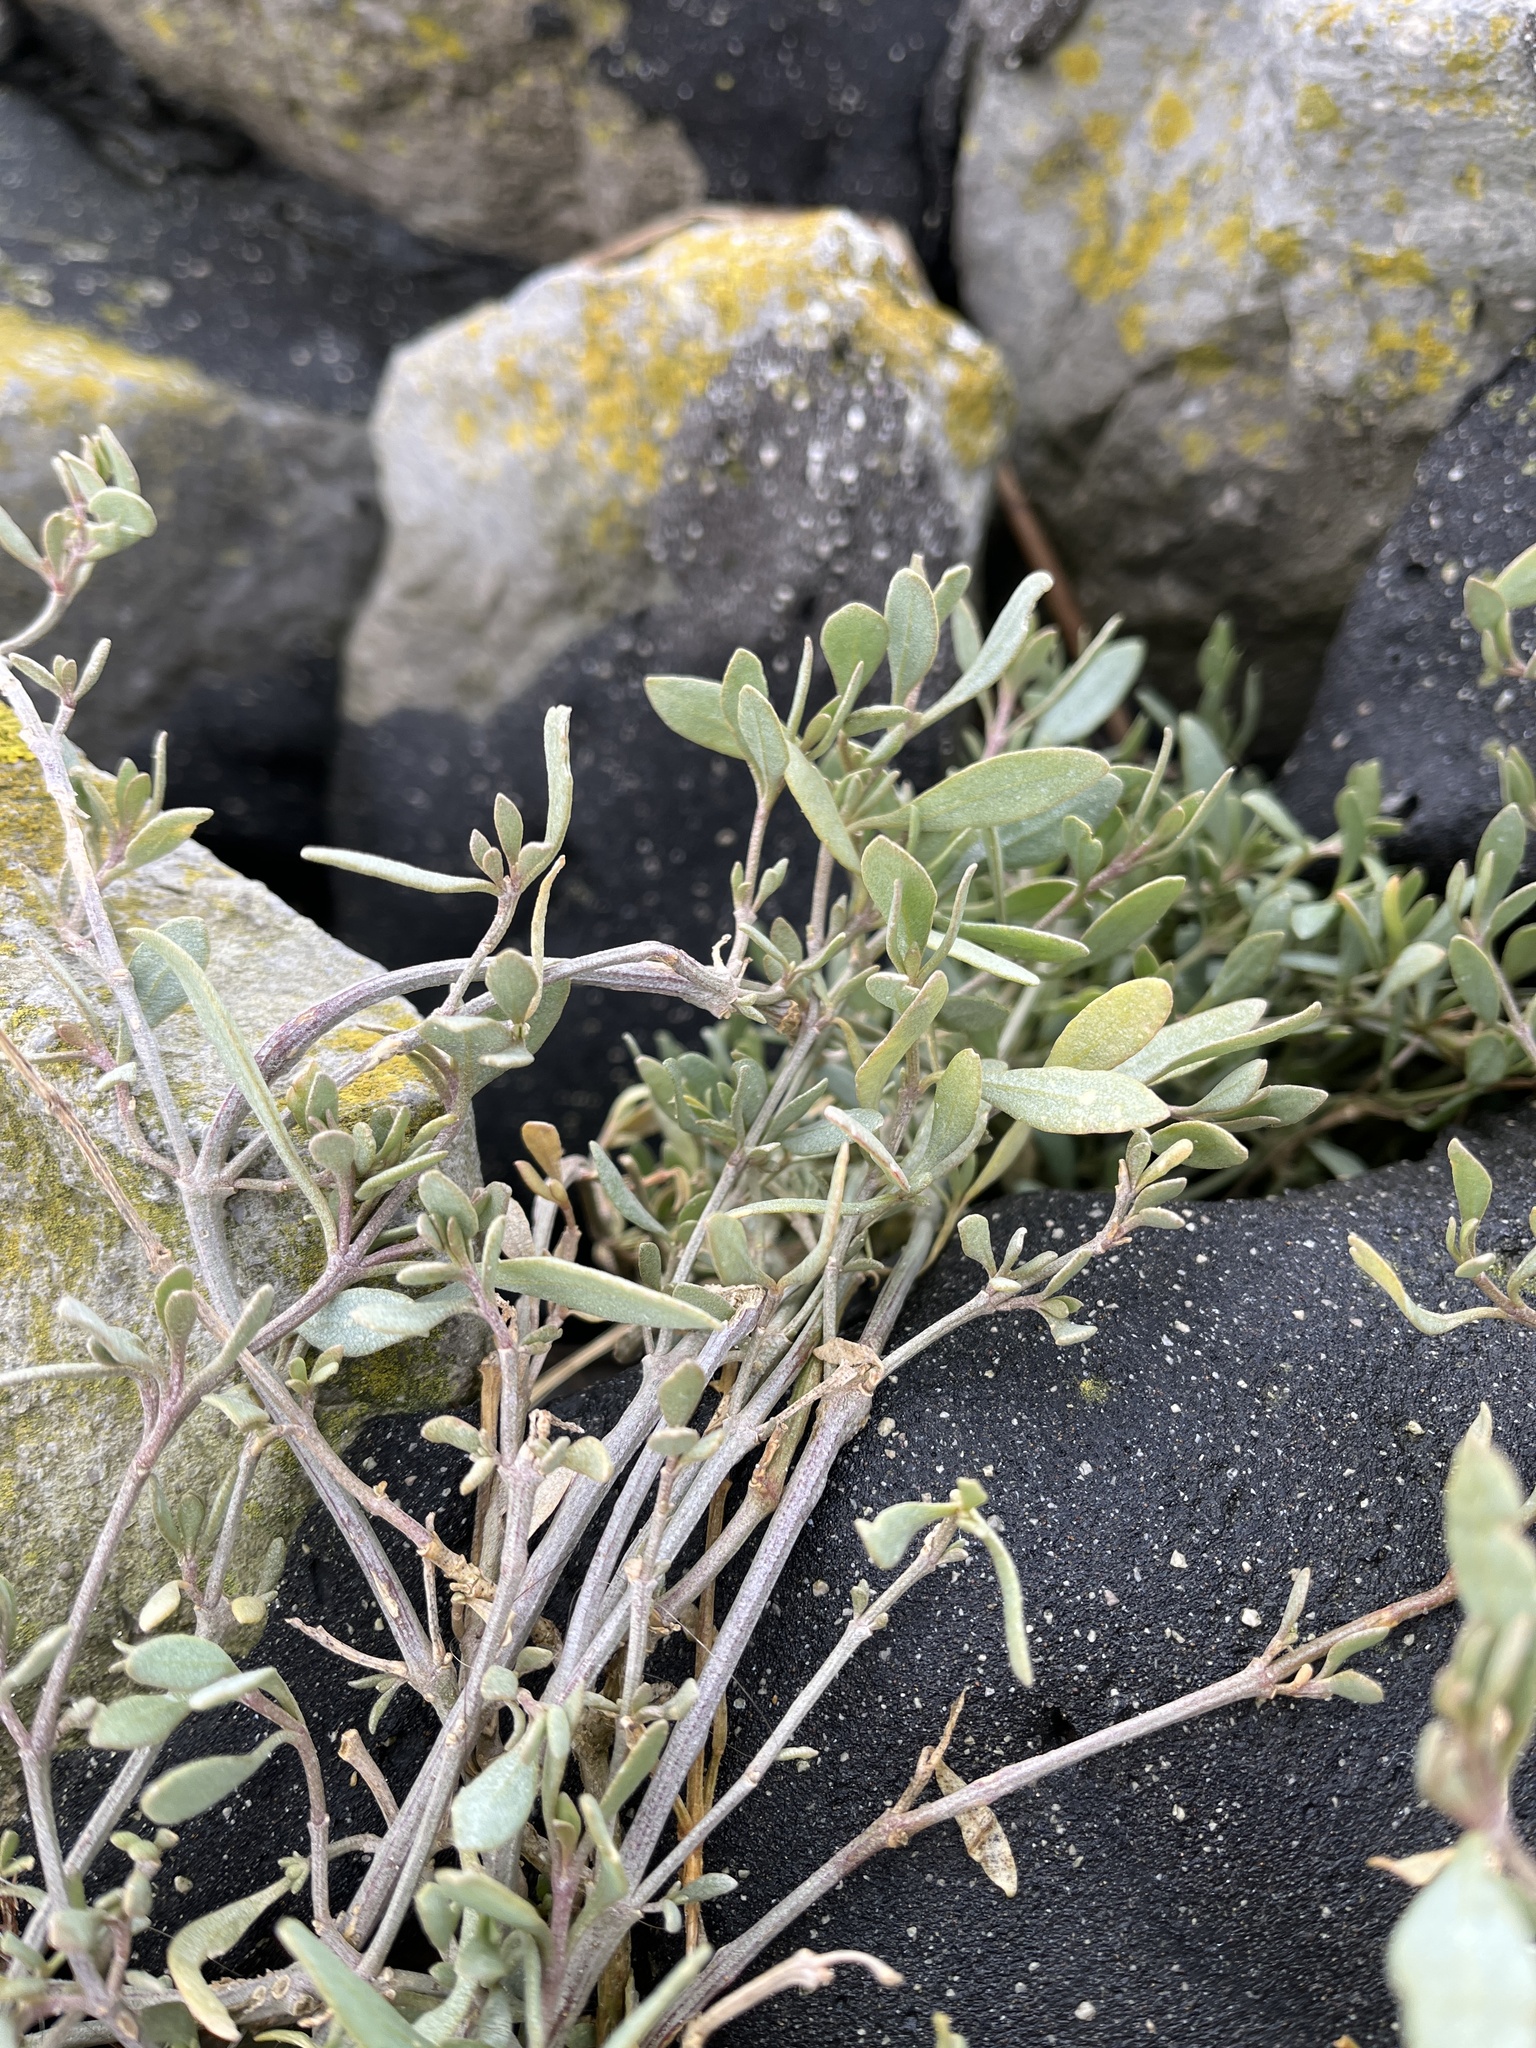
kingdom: Plantae
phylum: Tracheophyta
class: Magnoliopsida
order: Caryophyllales
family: Amaranthaceae
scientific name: Amaranthaceae
